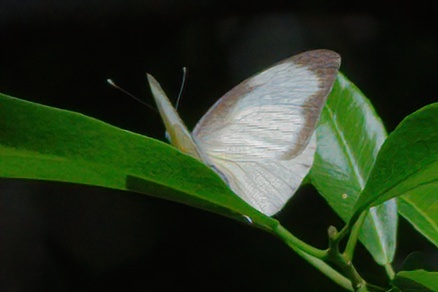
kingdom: Animalia
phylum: Arthropoda
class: Insecta
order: Lepidoptera
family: Pieridae
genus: Glutophrissa
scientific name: Glutophrissa drusilla
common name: Florida white
